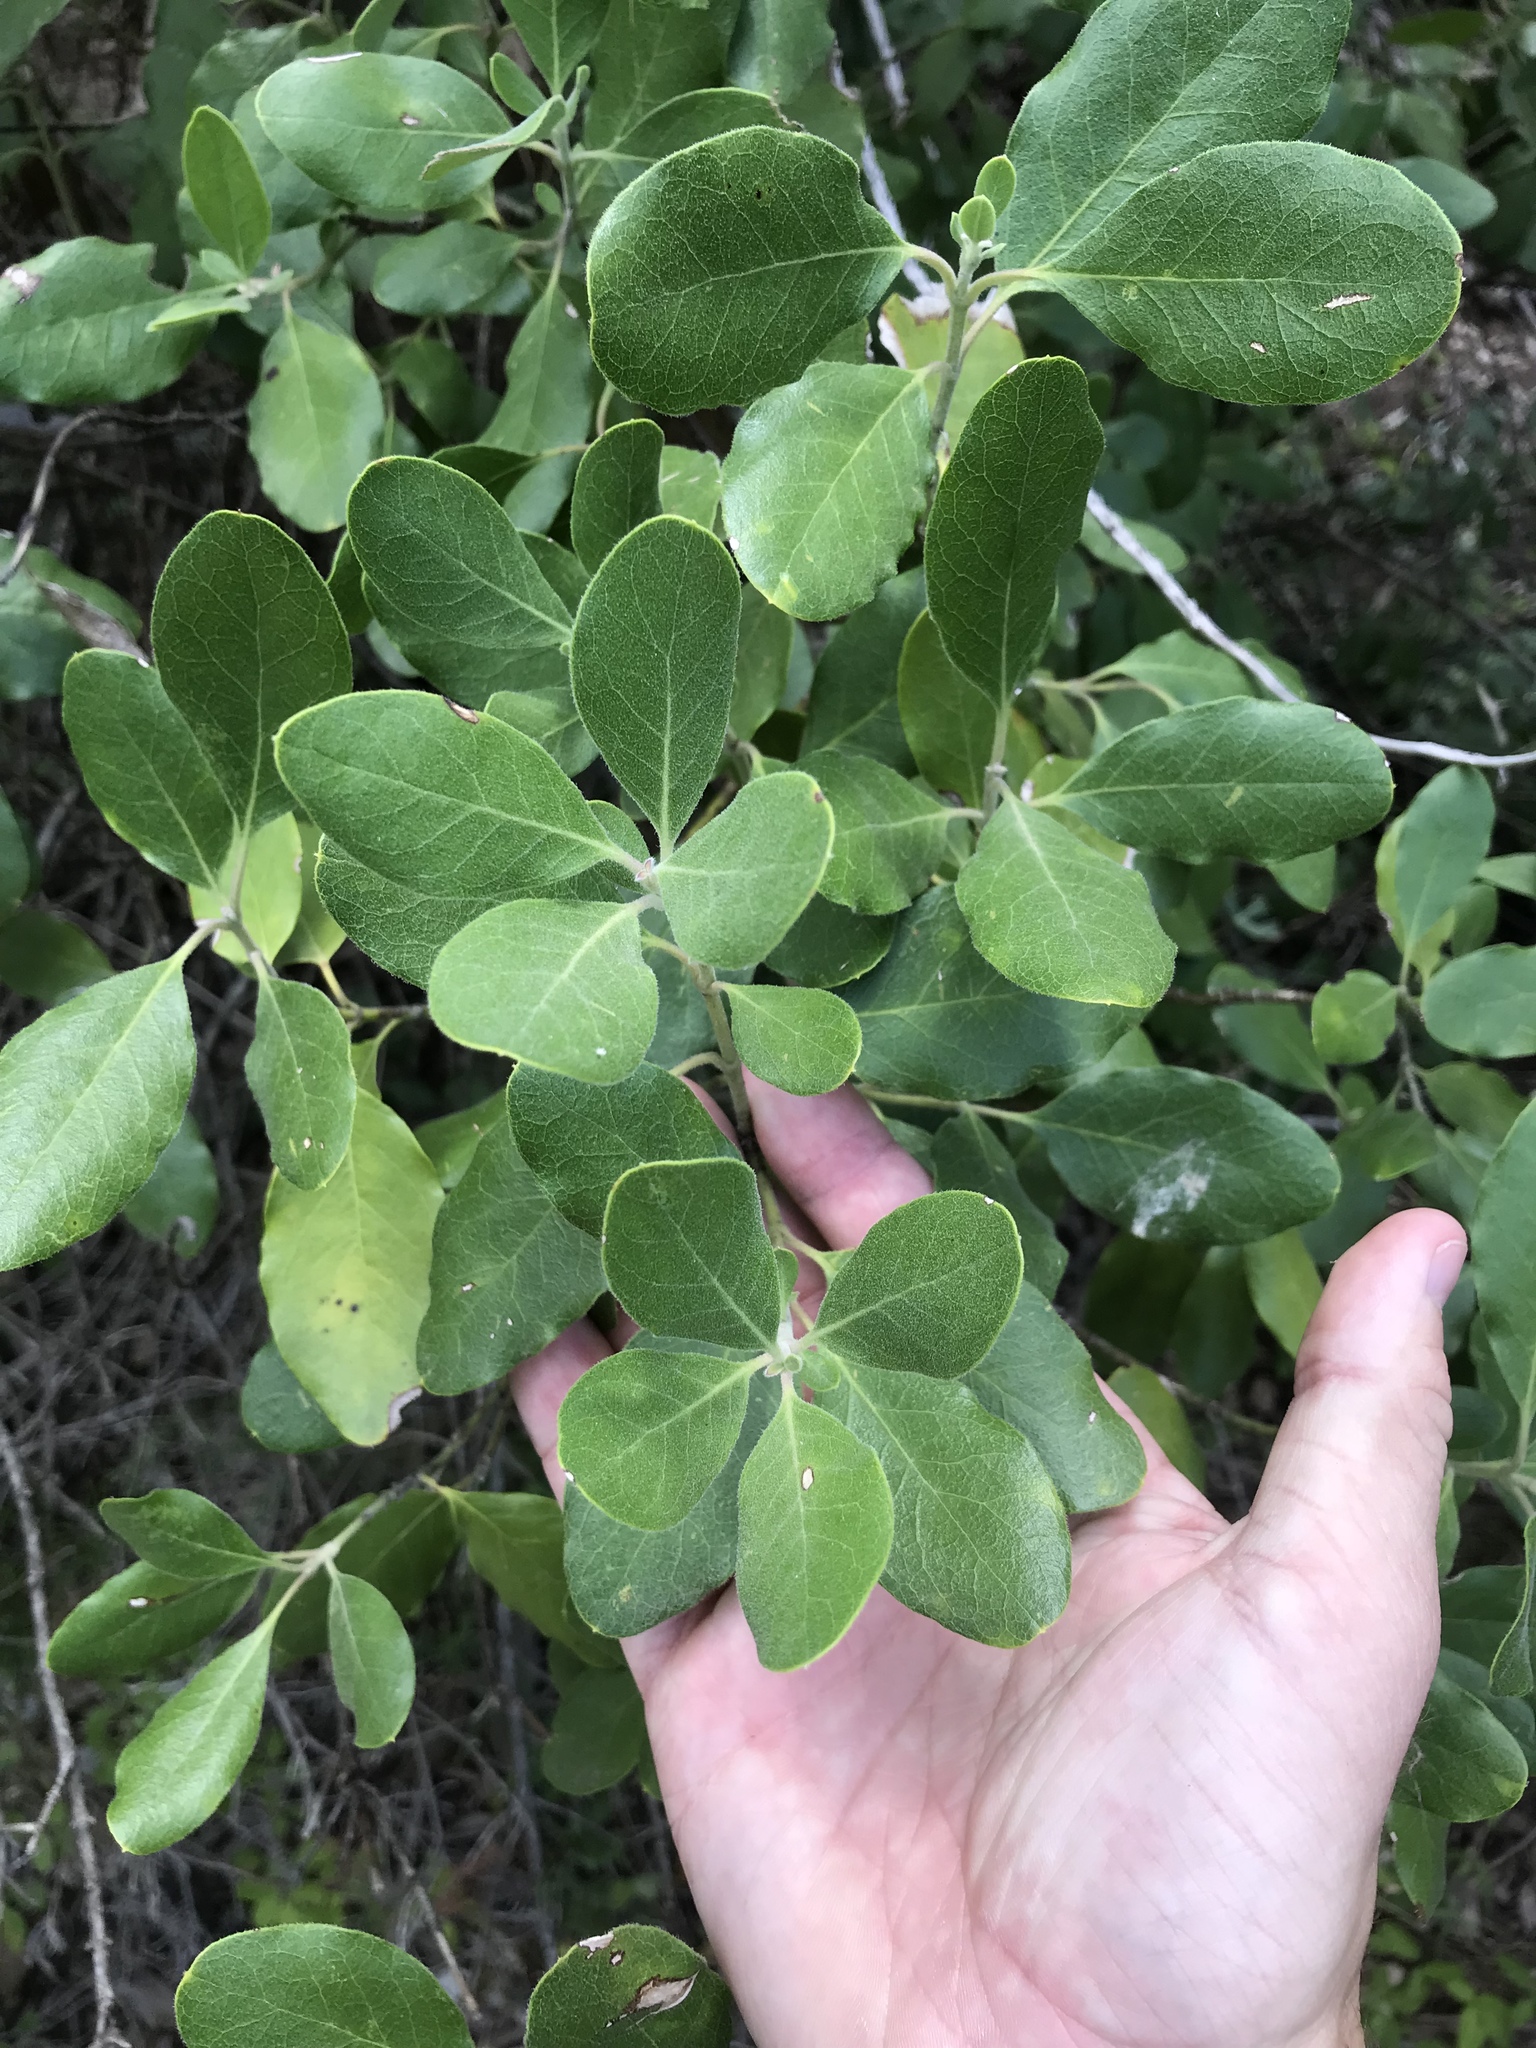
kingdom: Plantae
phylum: Tracheophyta
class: Magnoliopsida
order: Garryales
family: Garryaceae
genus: Garrya
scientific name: Garrya lindheimeri
